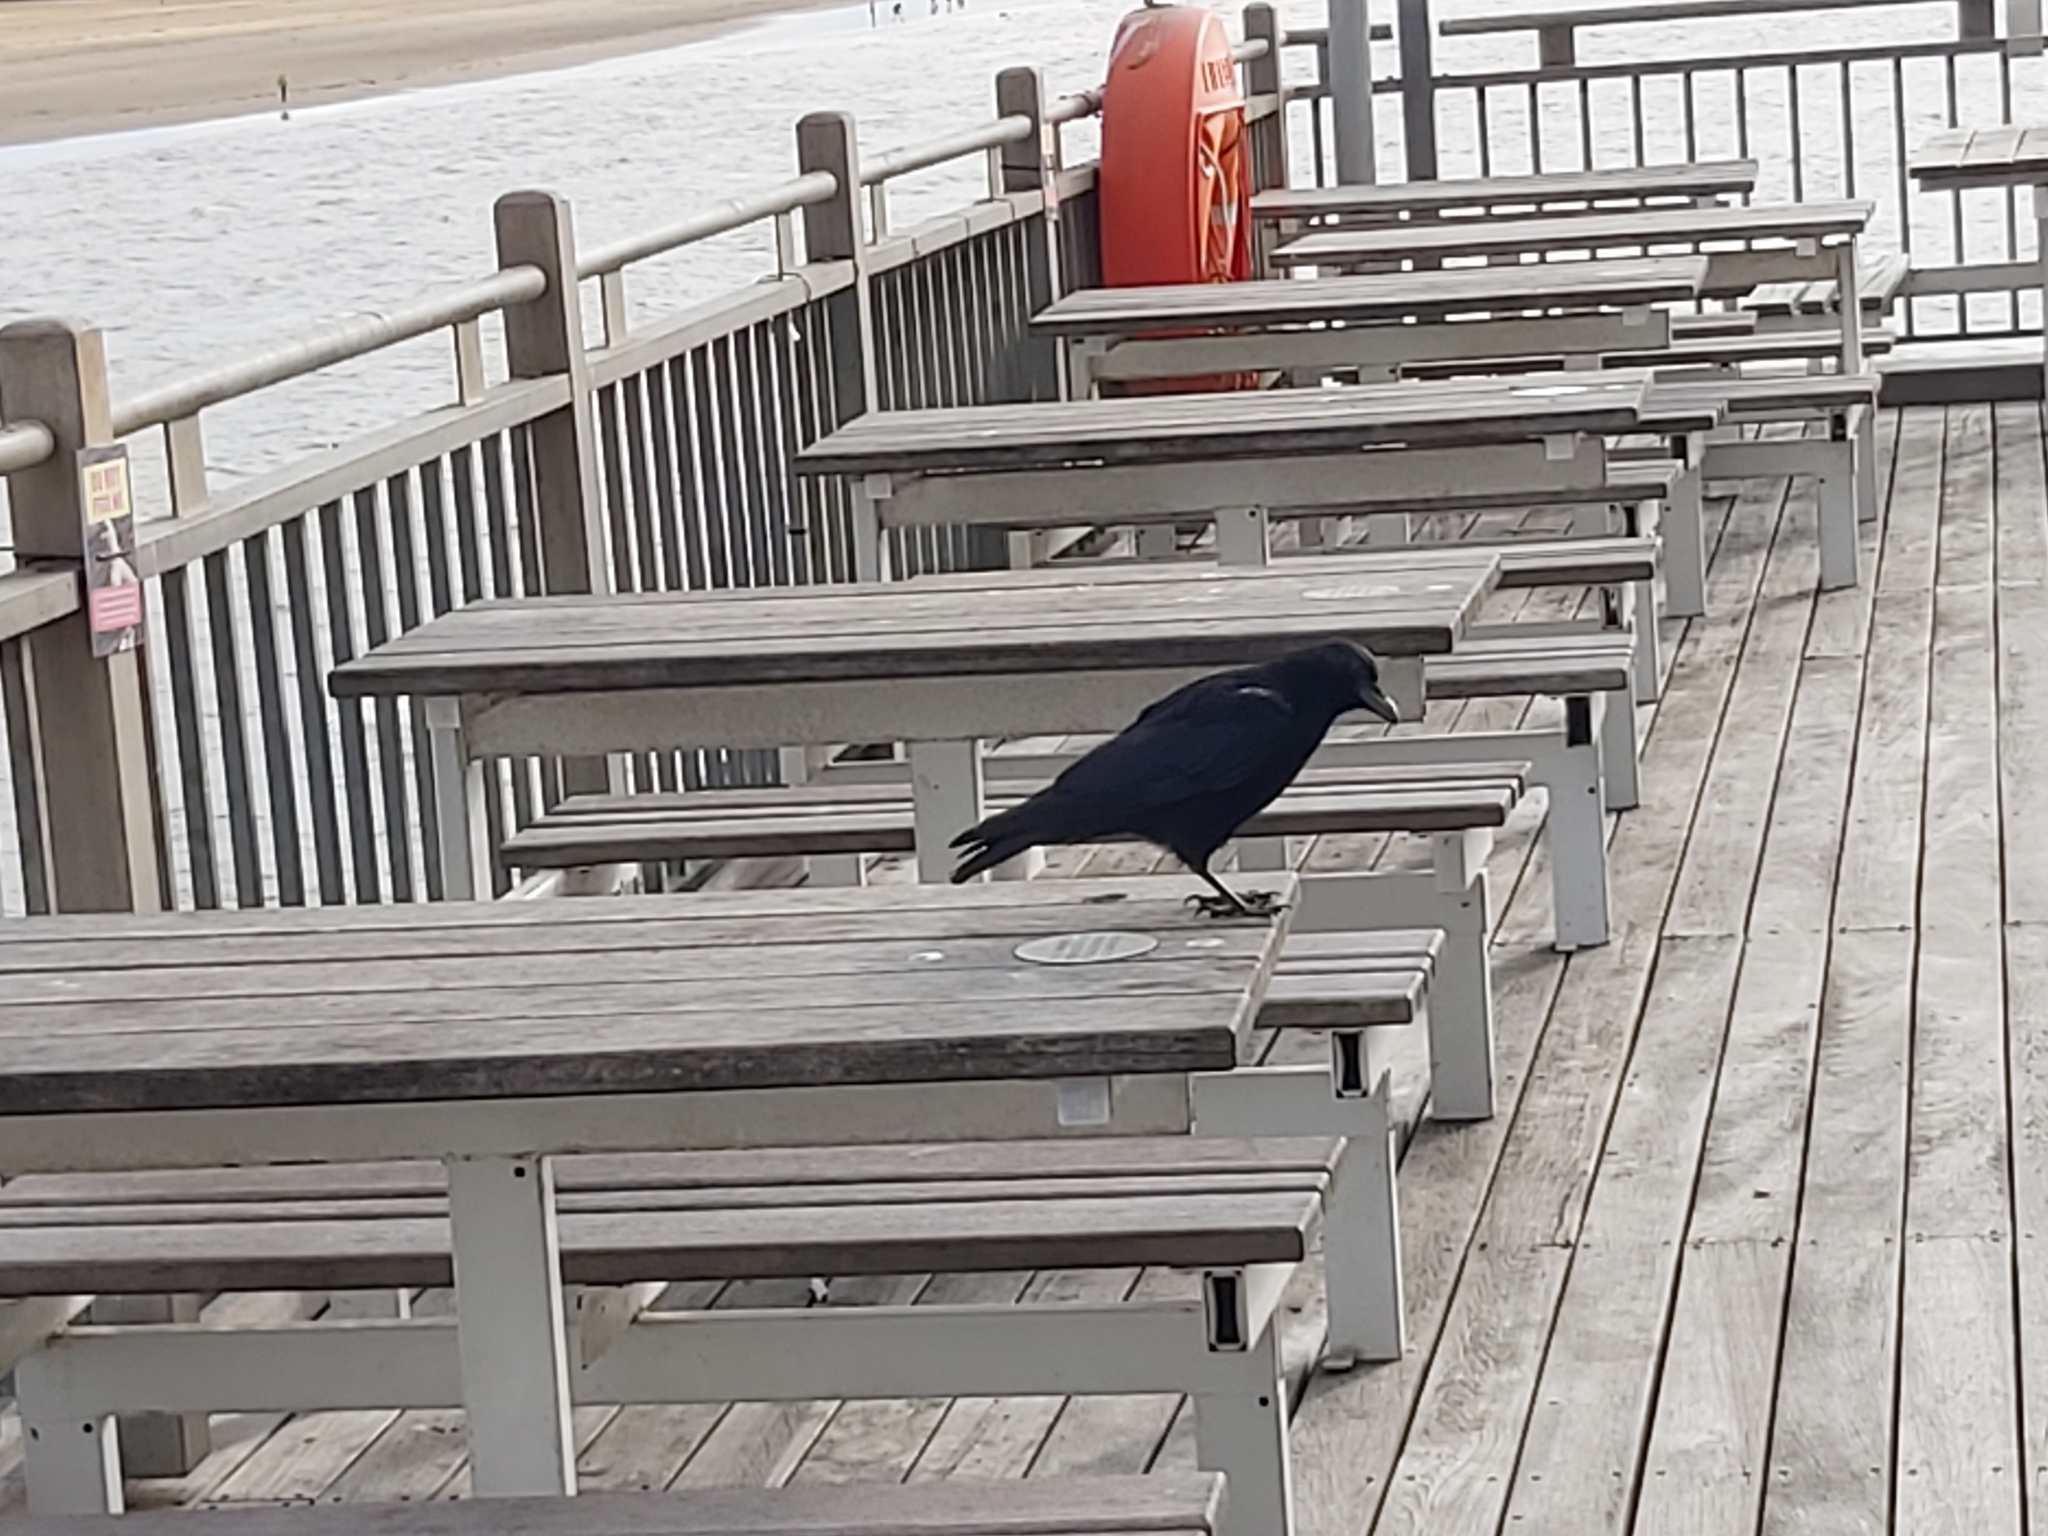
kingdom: Animalia
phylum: Chordata
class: Aves
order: Passeriformes
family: Corvidae
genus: Corvus
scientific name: Corvus corone
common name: Carrion crow
